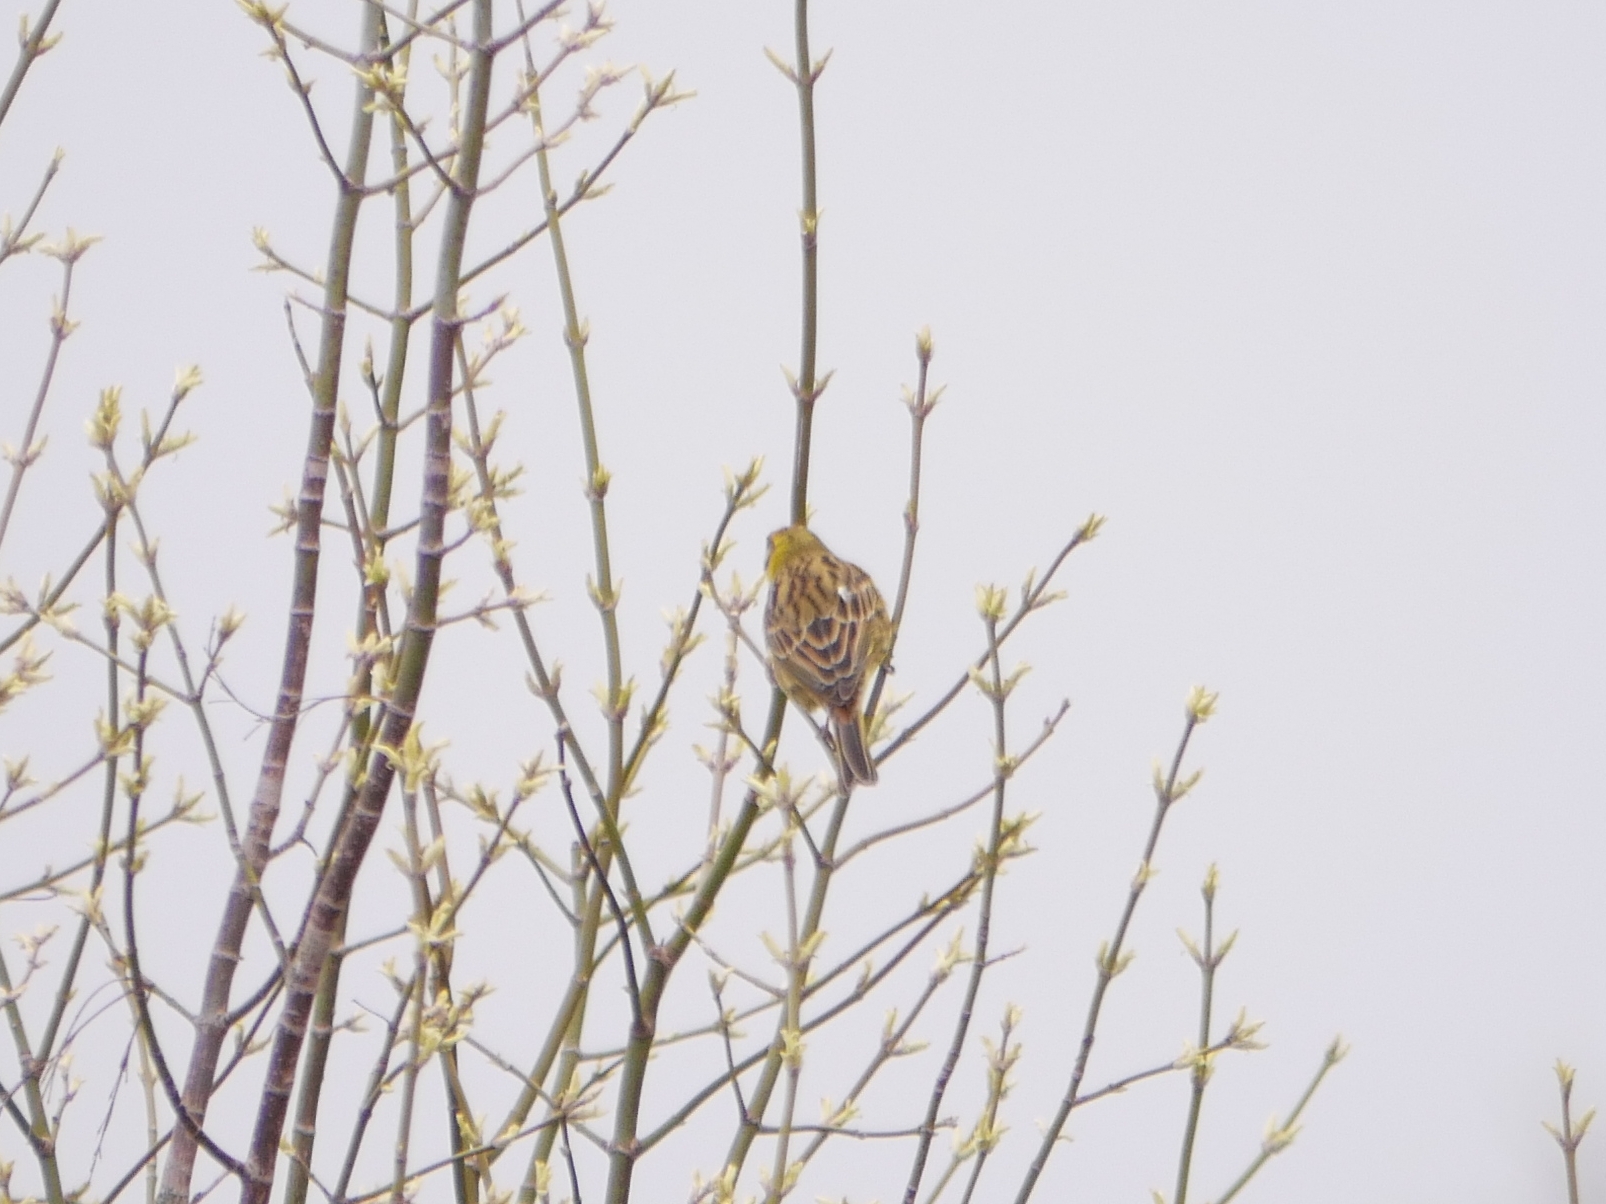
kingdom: Animalia
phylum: Chordata
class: Aves
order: Passeriformes
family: Emberizidae
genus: Emberiza
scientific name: Emberiza citrinella
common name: Yellowhammer
